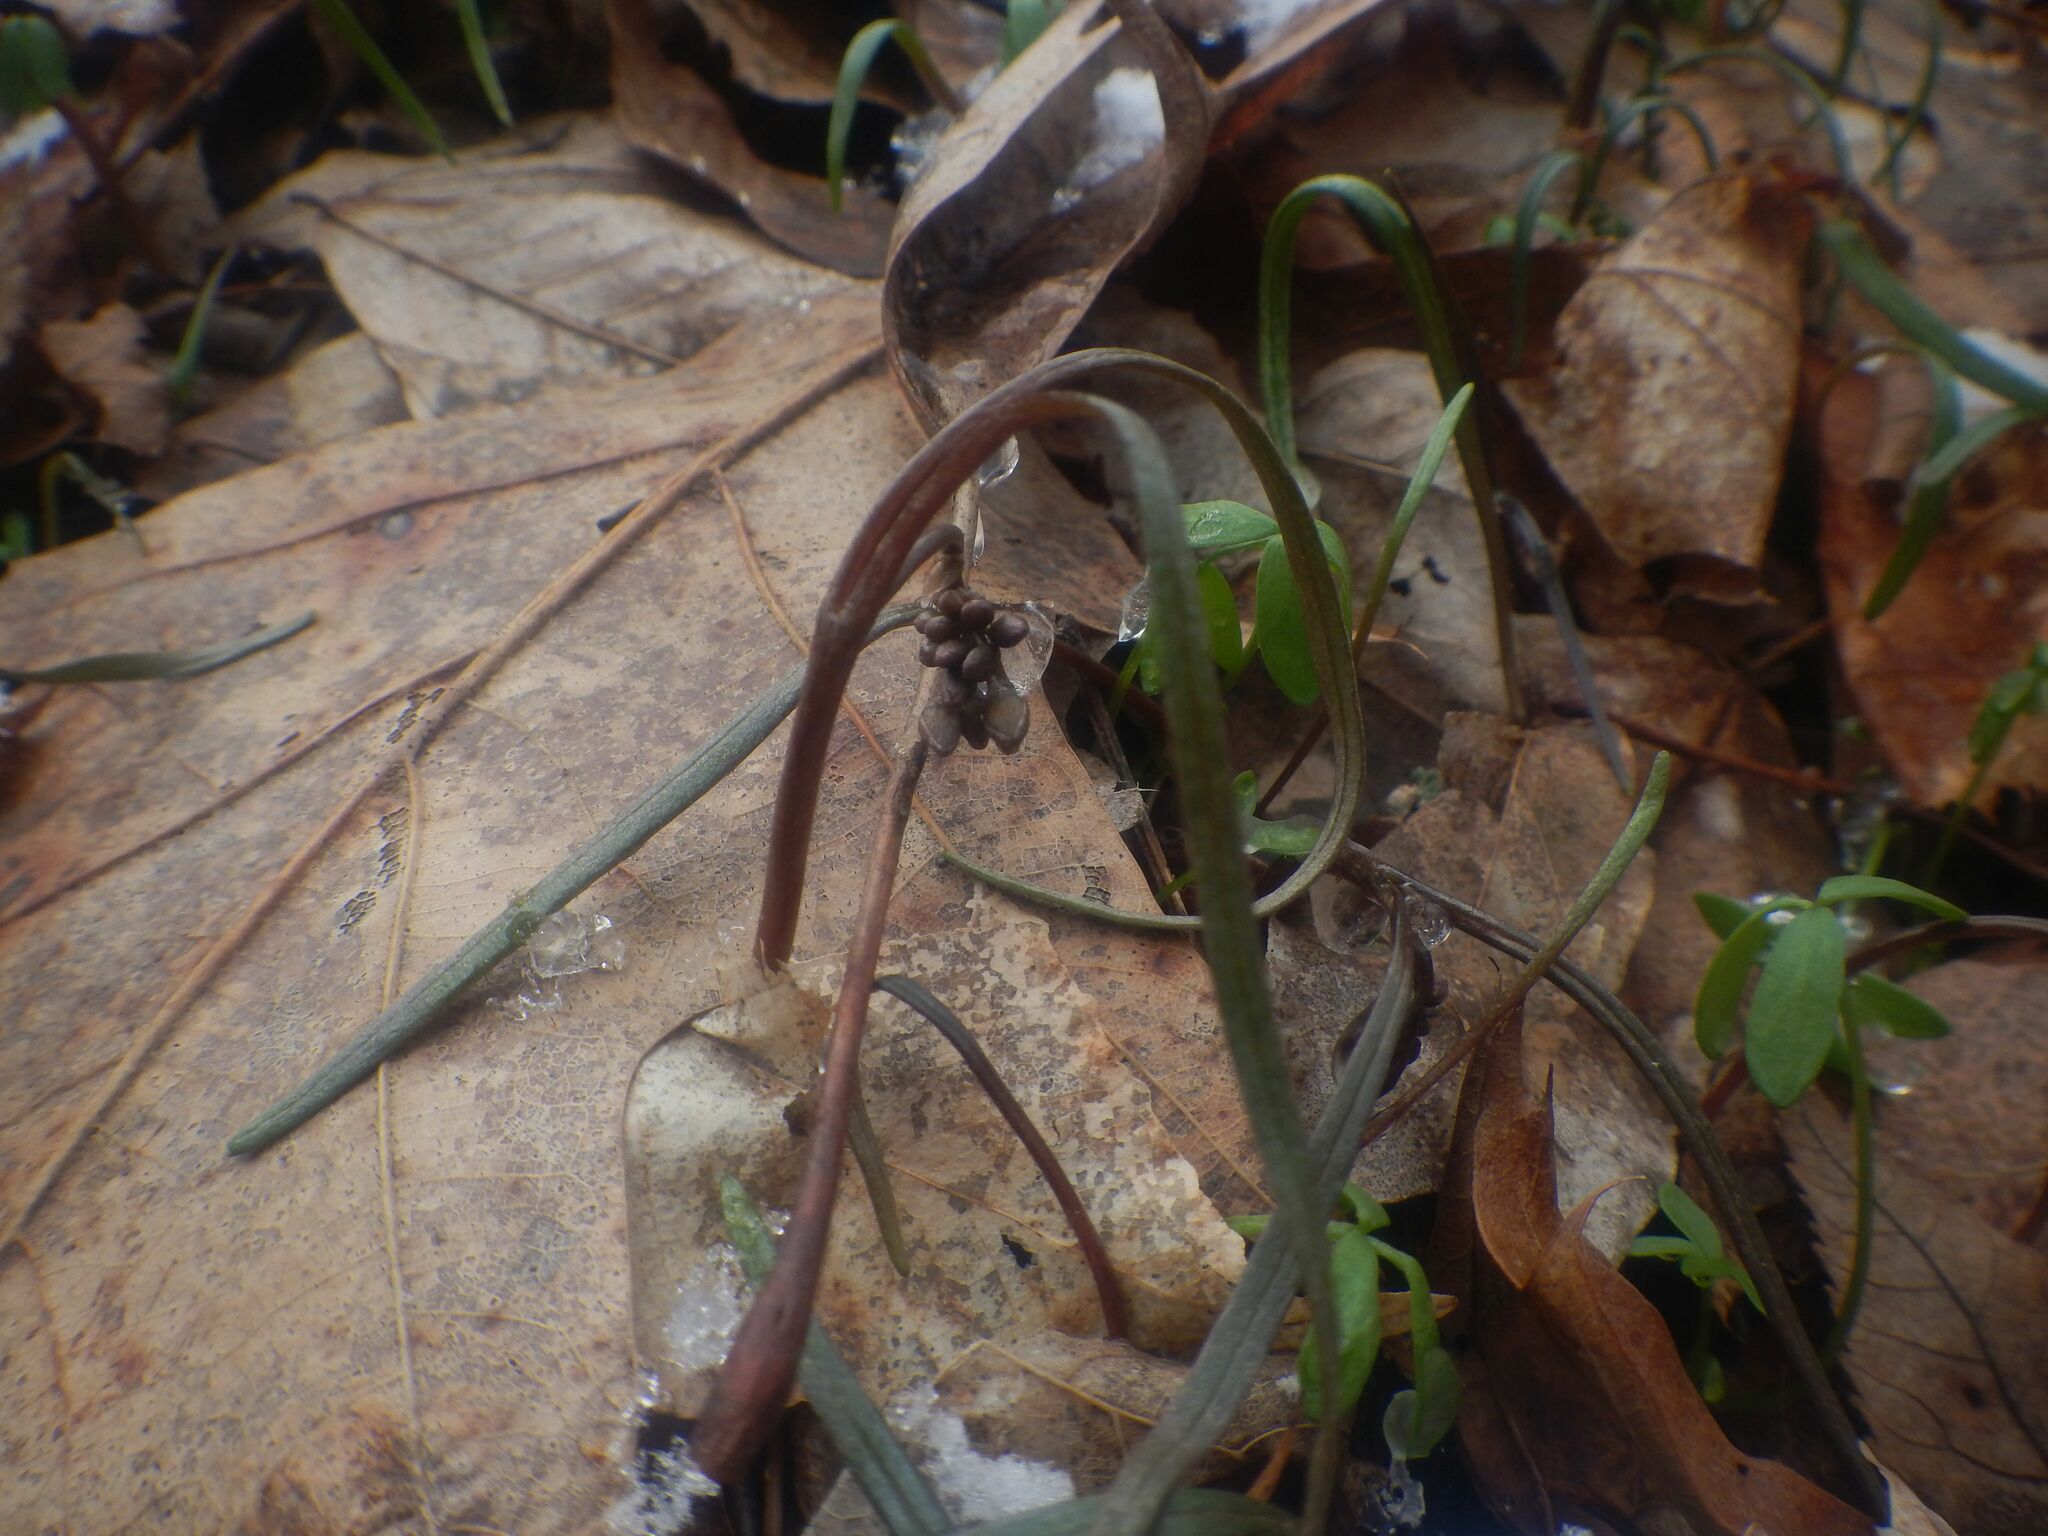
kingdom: Plantae
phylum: Tracheophyta
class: Magnoliopsida
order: Caryophyllales
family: Montiaceae
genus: Claytonia
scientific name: Claytonia virginica
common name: Virginia springbeauty
